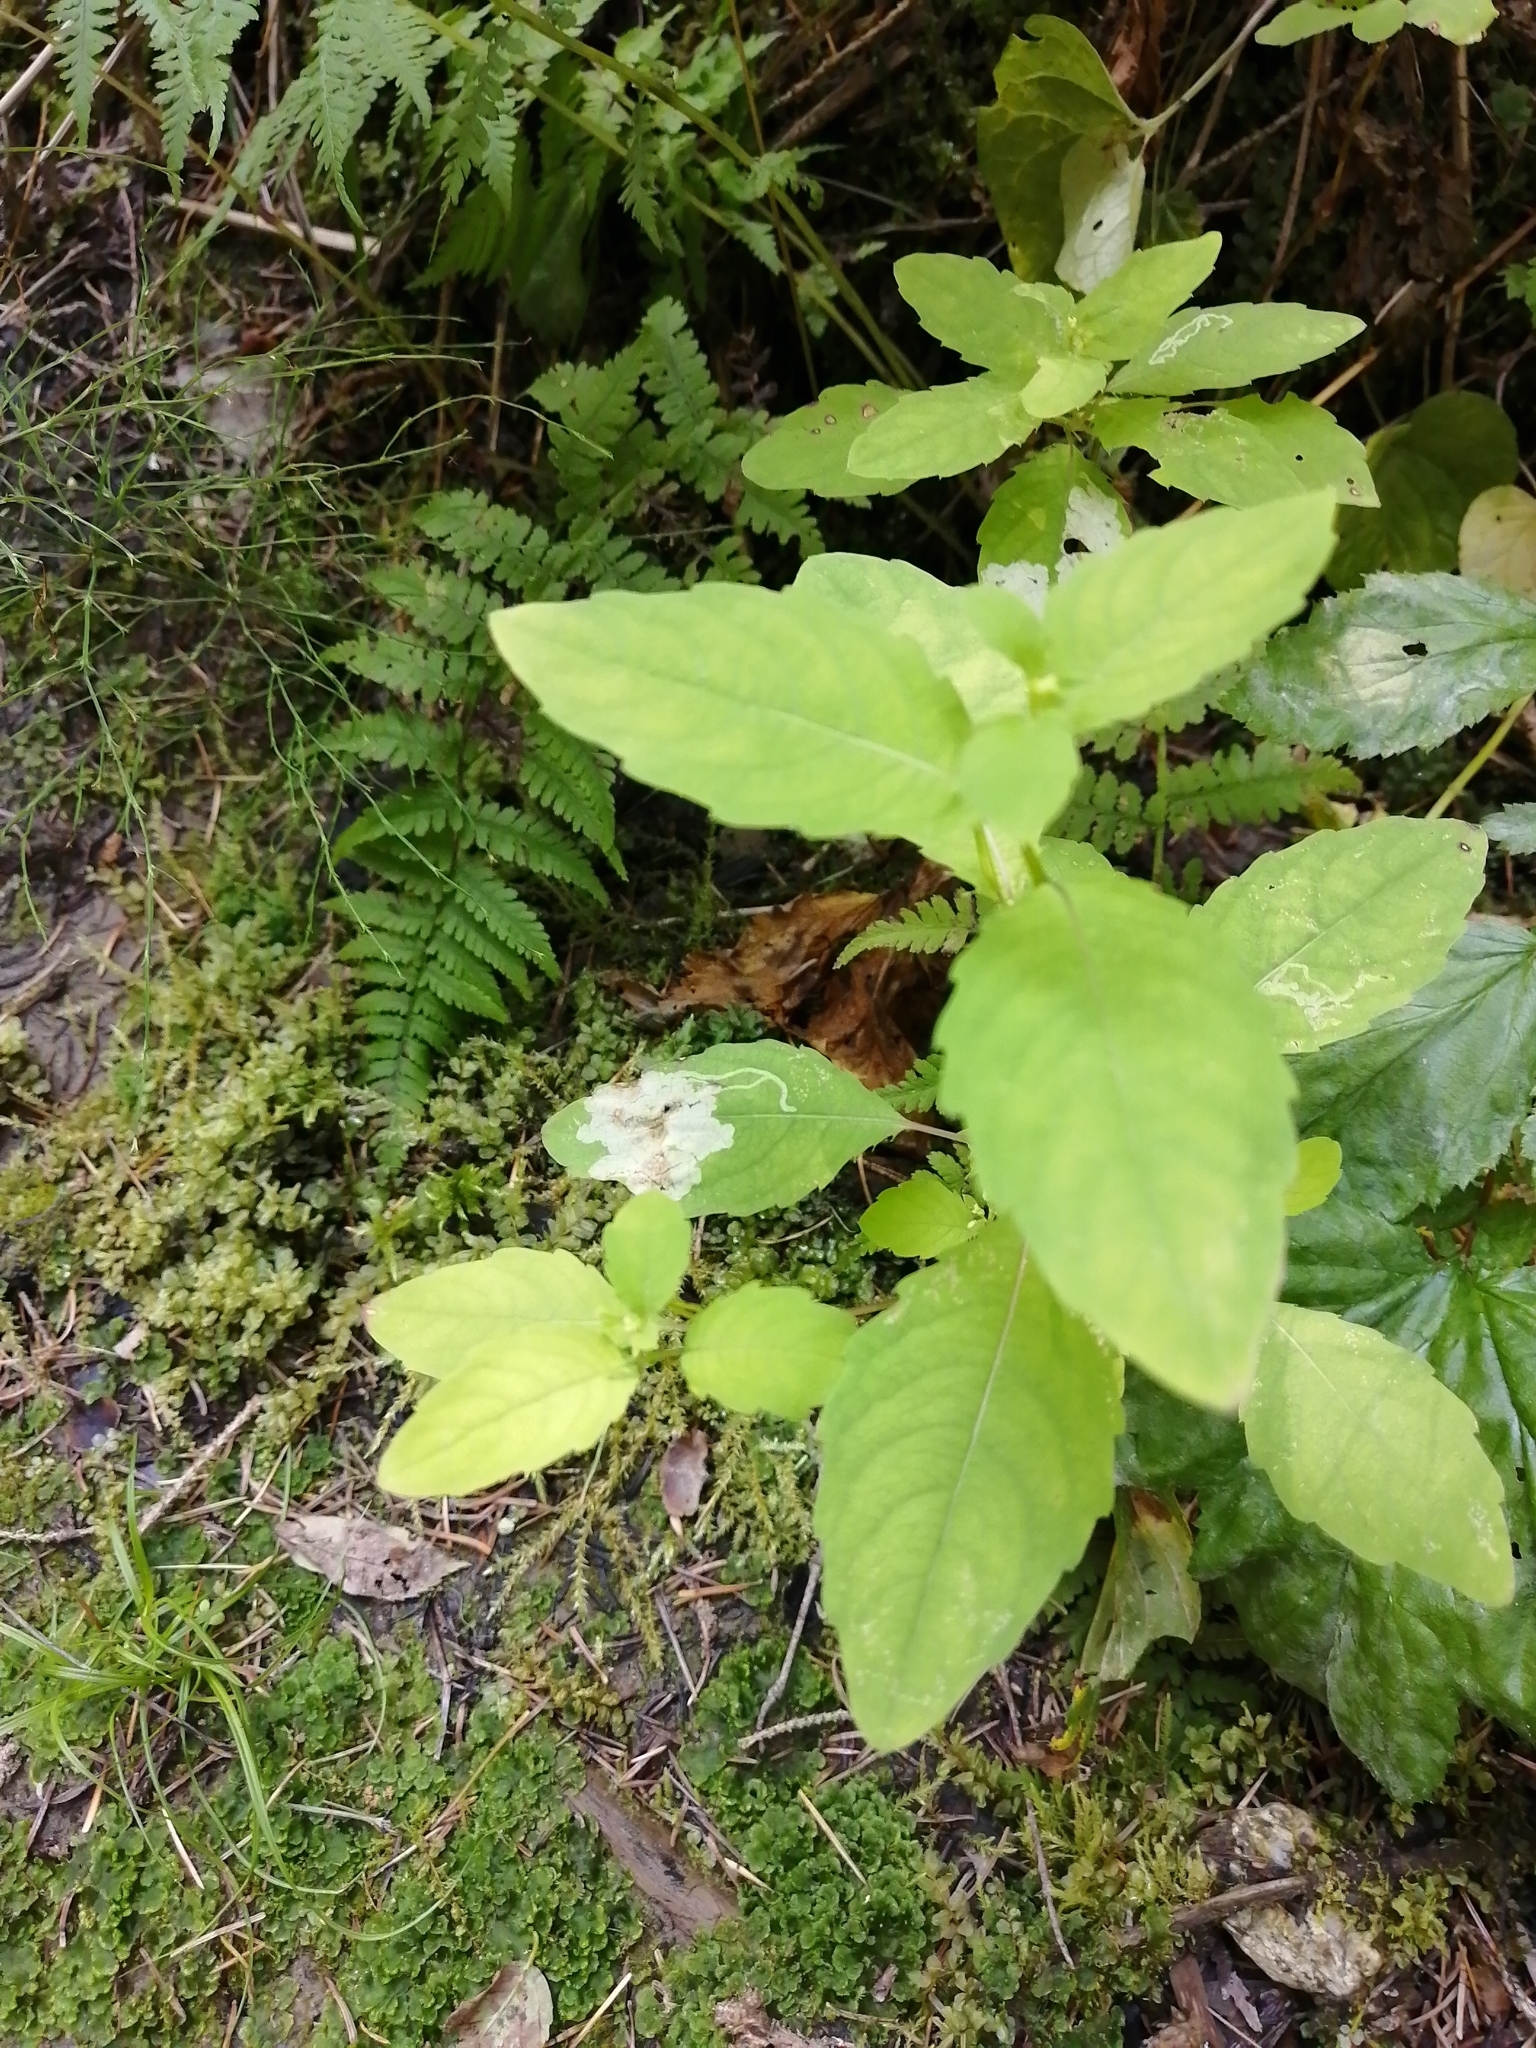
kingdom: Plantae
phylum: Tracheophyta
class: Magnoliopsida
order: Ericales
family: Balsaminaceae
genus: Impatiens
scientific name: Impatiens noli-tangere
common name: Touch-me-not balsam
